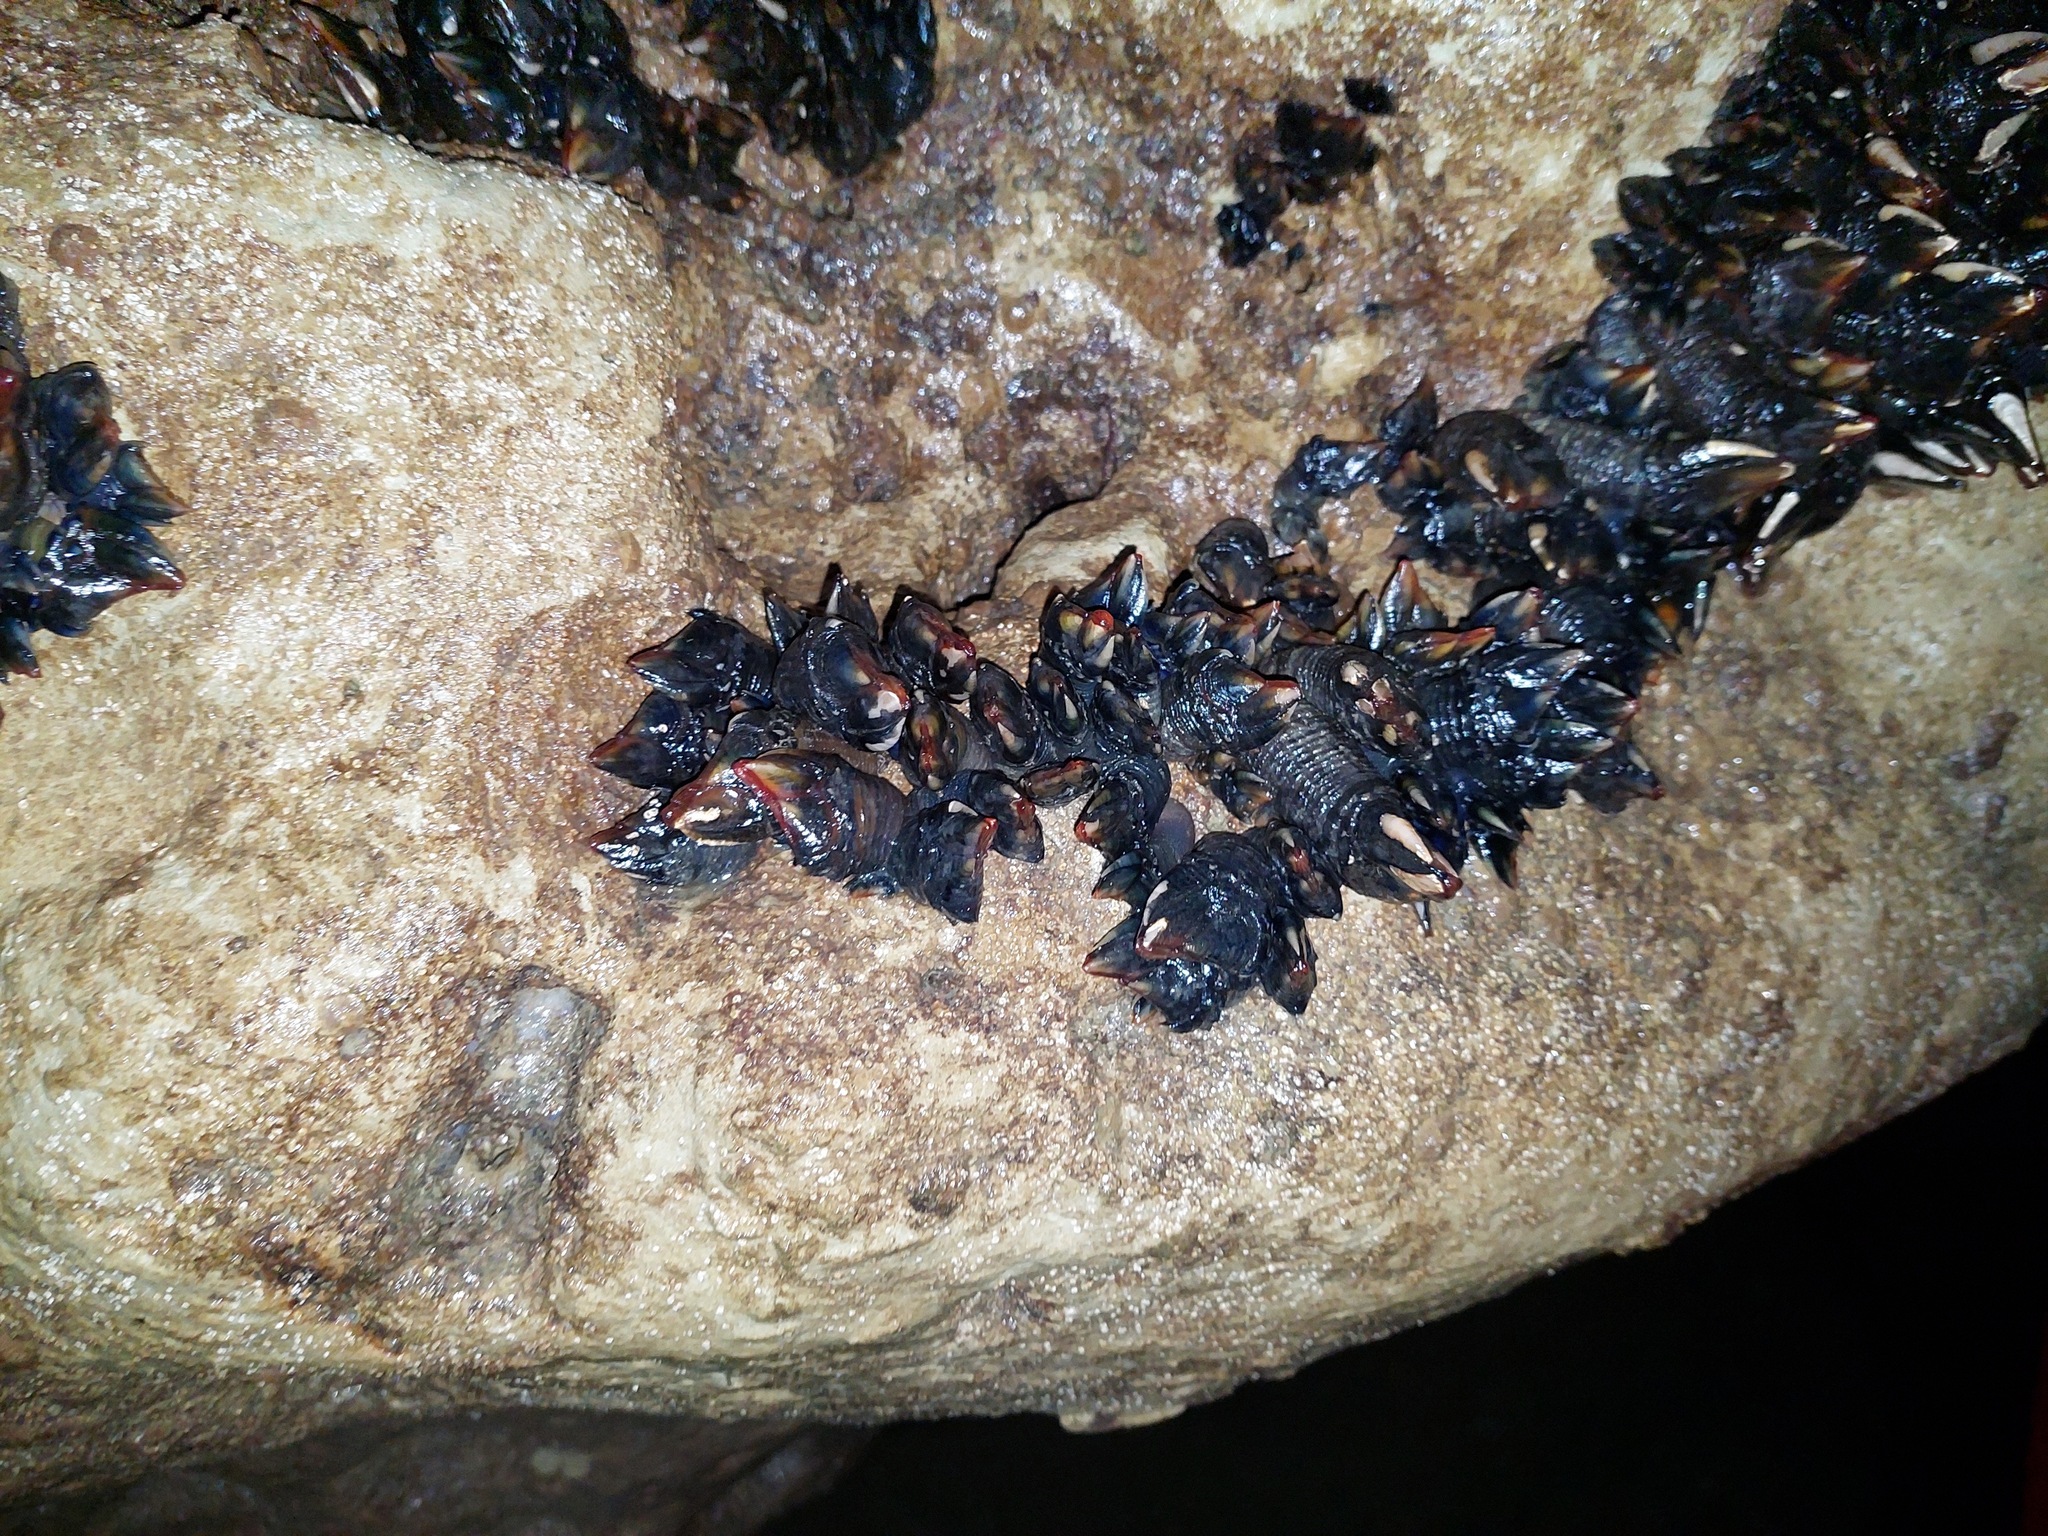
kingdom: Animalia
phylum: Arthropoda
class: Maxillopoda
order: Pedunculata
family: Calanticidae
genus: Calantica
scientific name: Calantica spinosa
